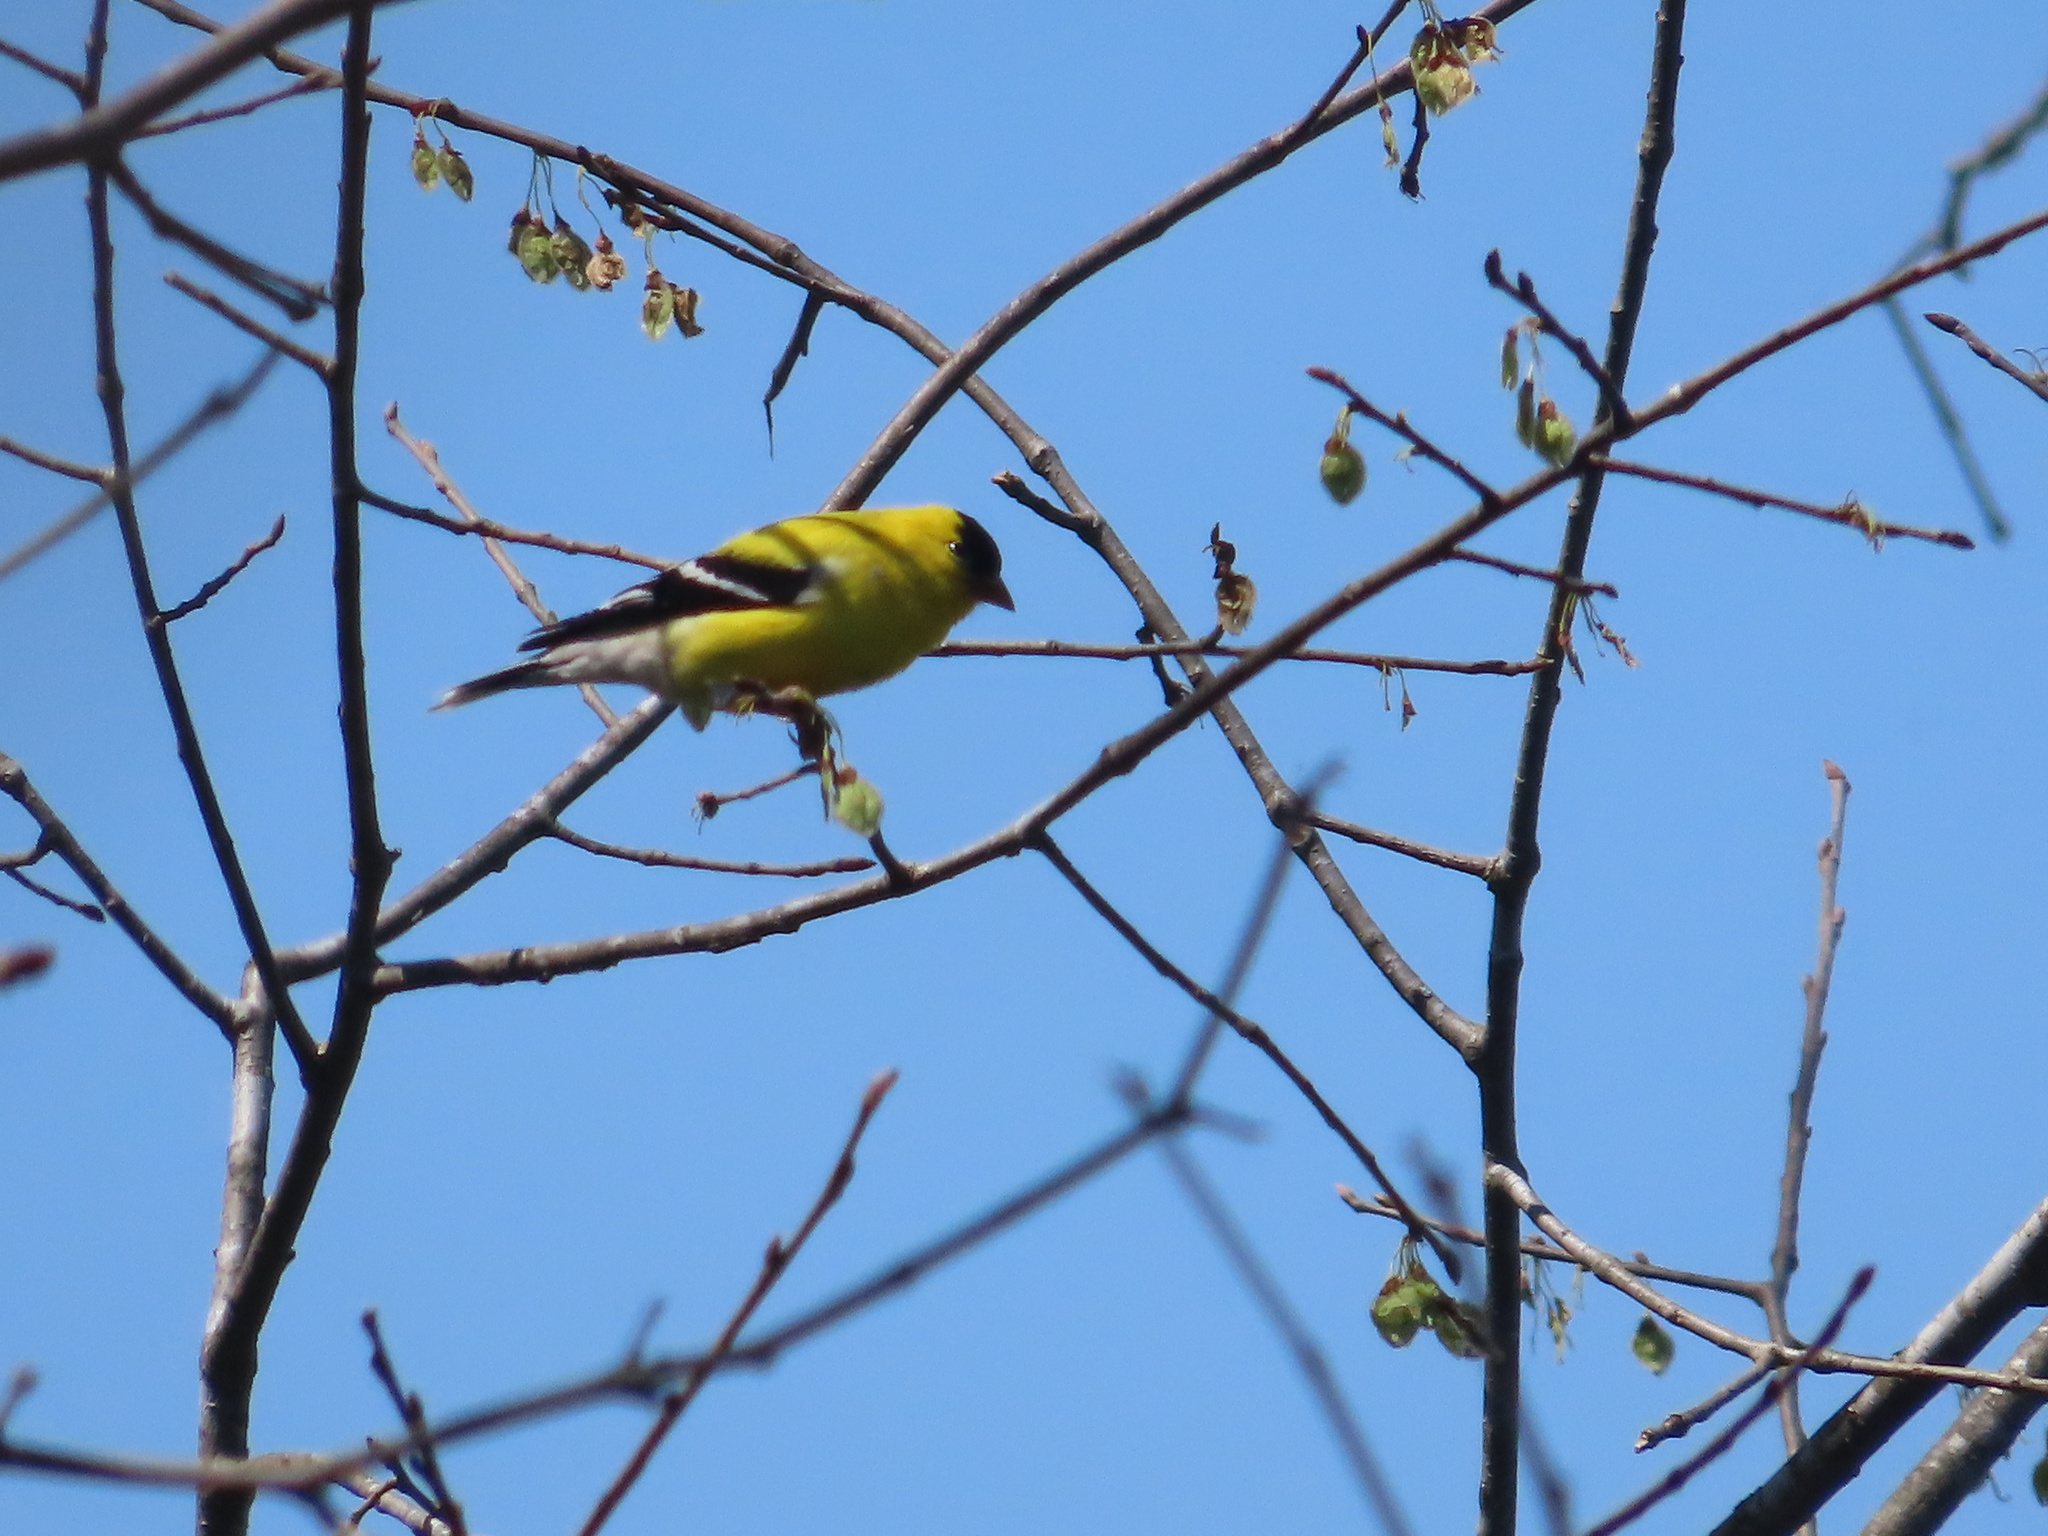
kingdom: Animalia
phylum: Chordata
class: Aves
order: Passeriformes
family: Fringillidae
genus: Spinus
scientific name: Spinus tristis
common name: American goldfinch
